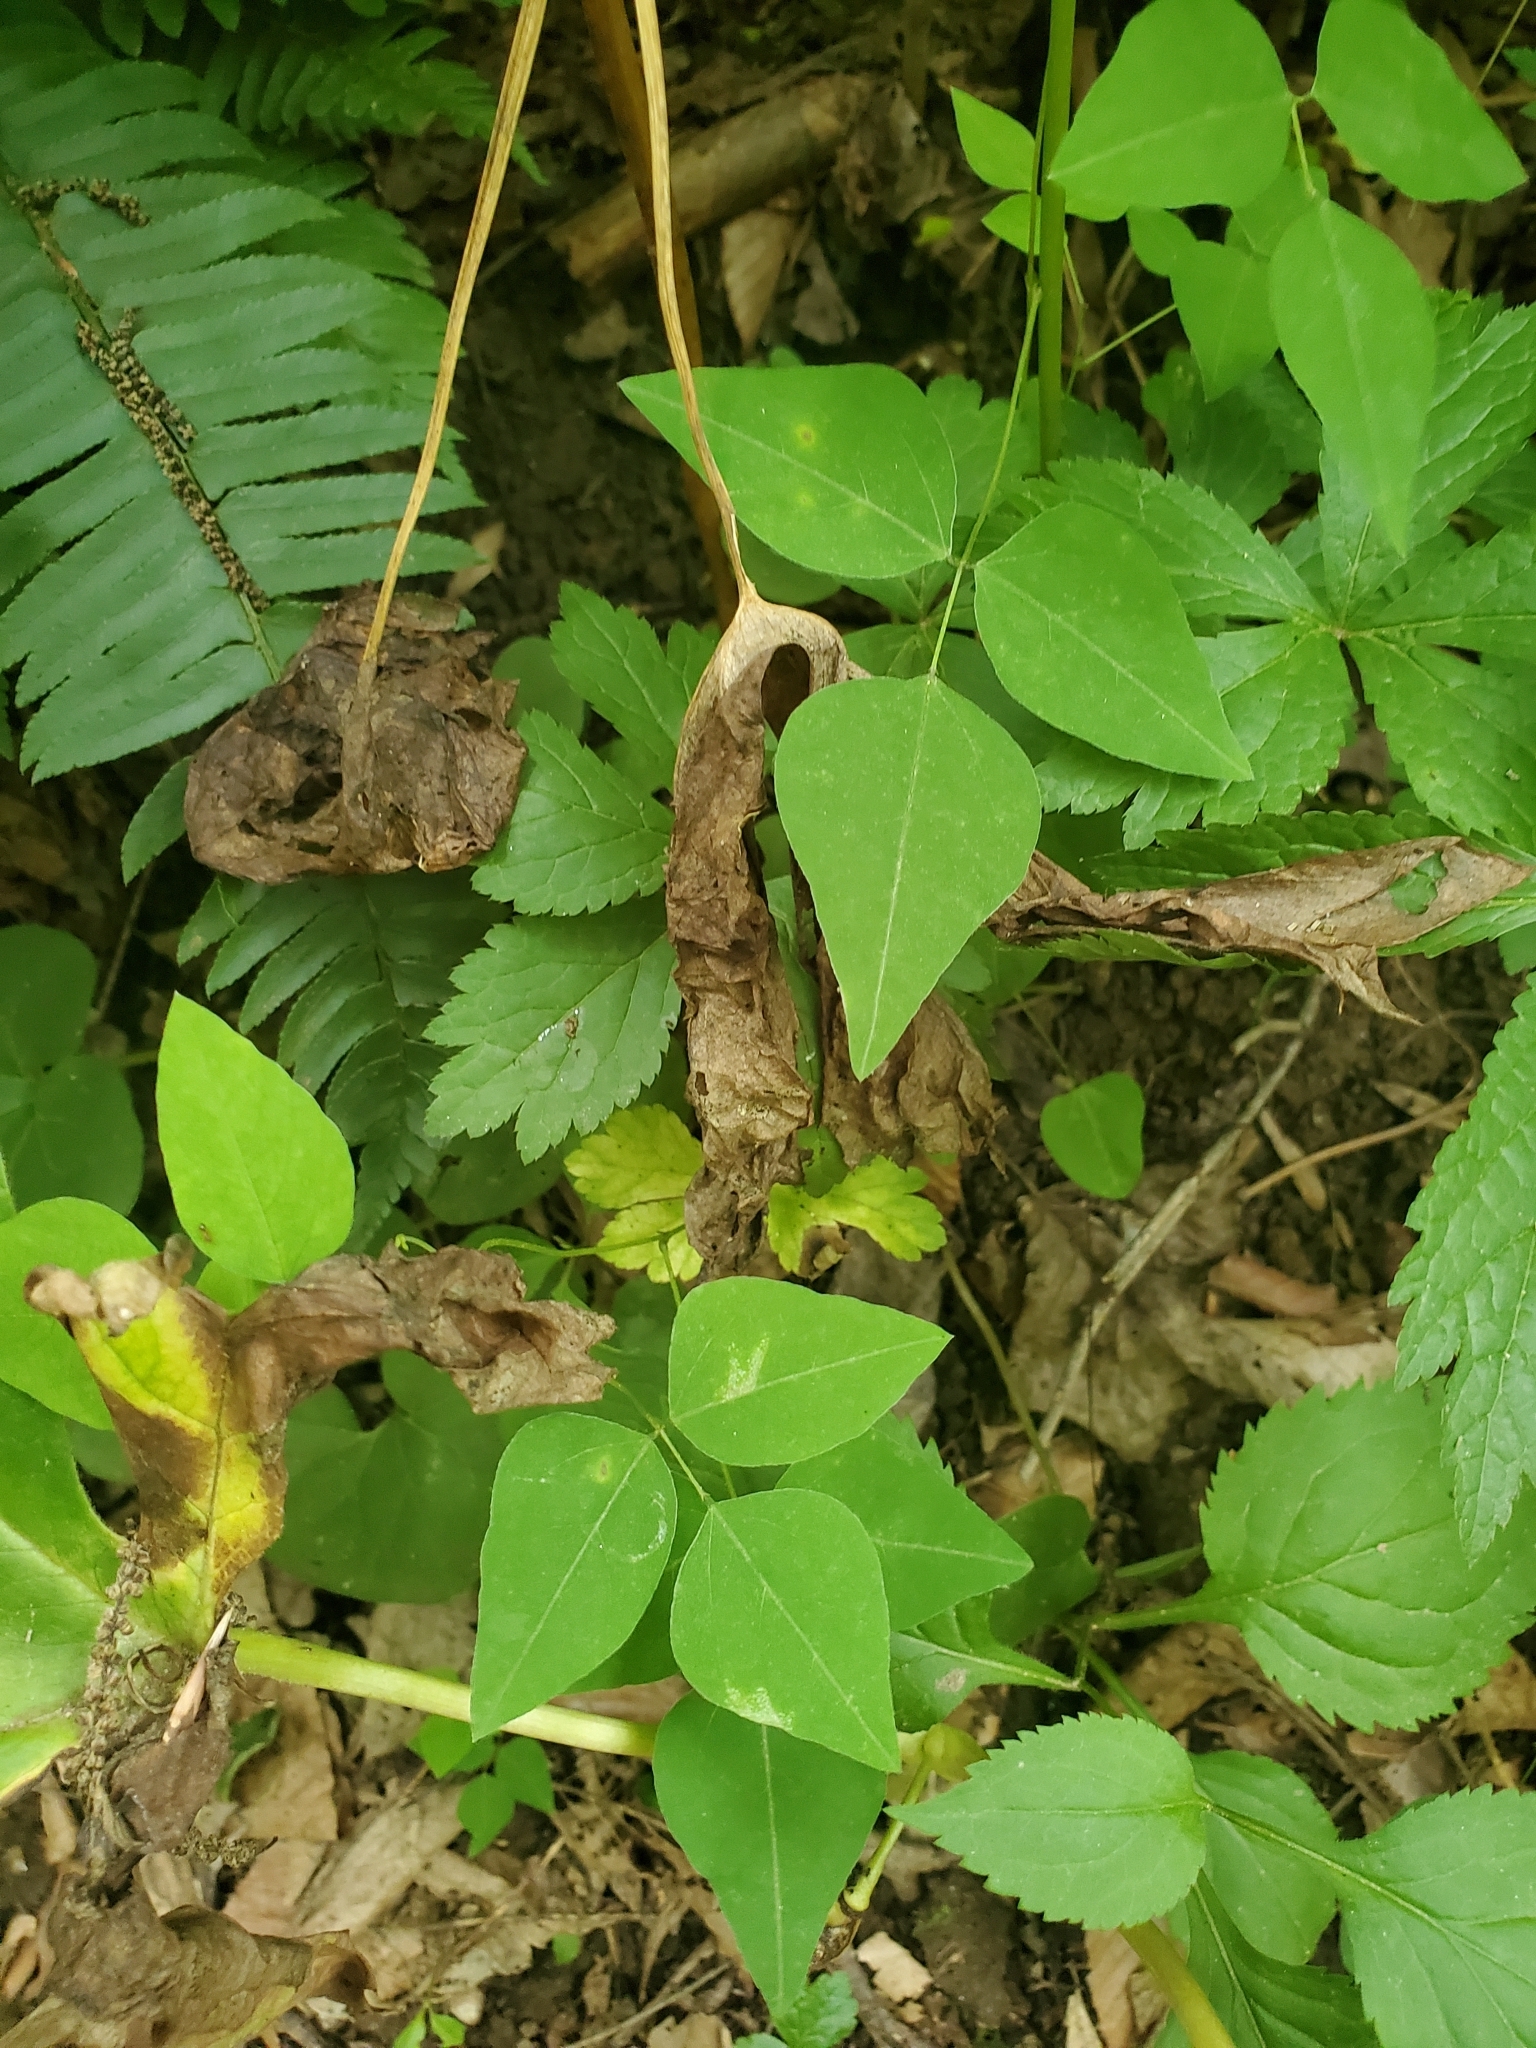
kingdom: Plantae
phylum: Tracheophyta
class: Magnoliopsida
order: Fabales
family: Fabaceae
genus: Amphicarpaea
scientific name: Amphicarpaea bracteata
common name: American hog peanut
